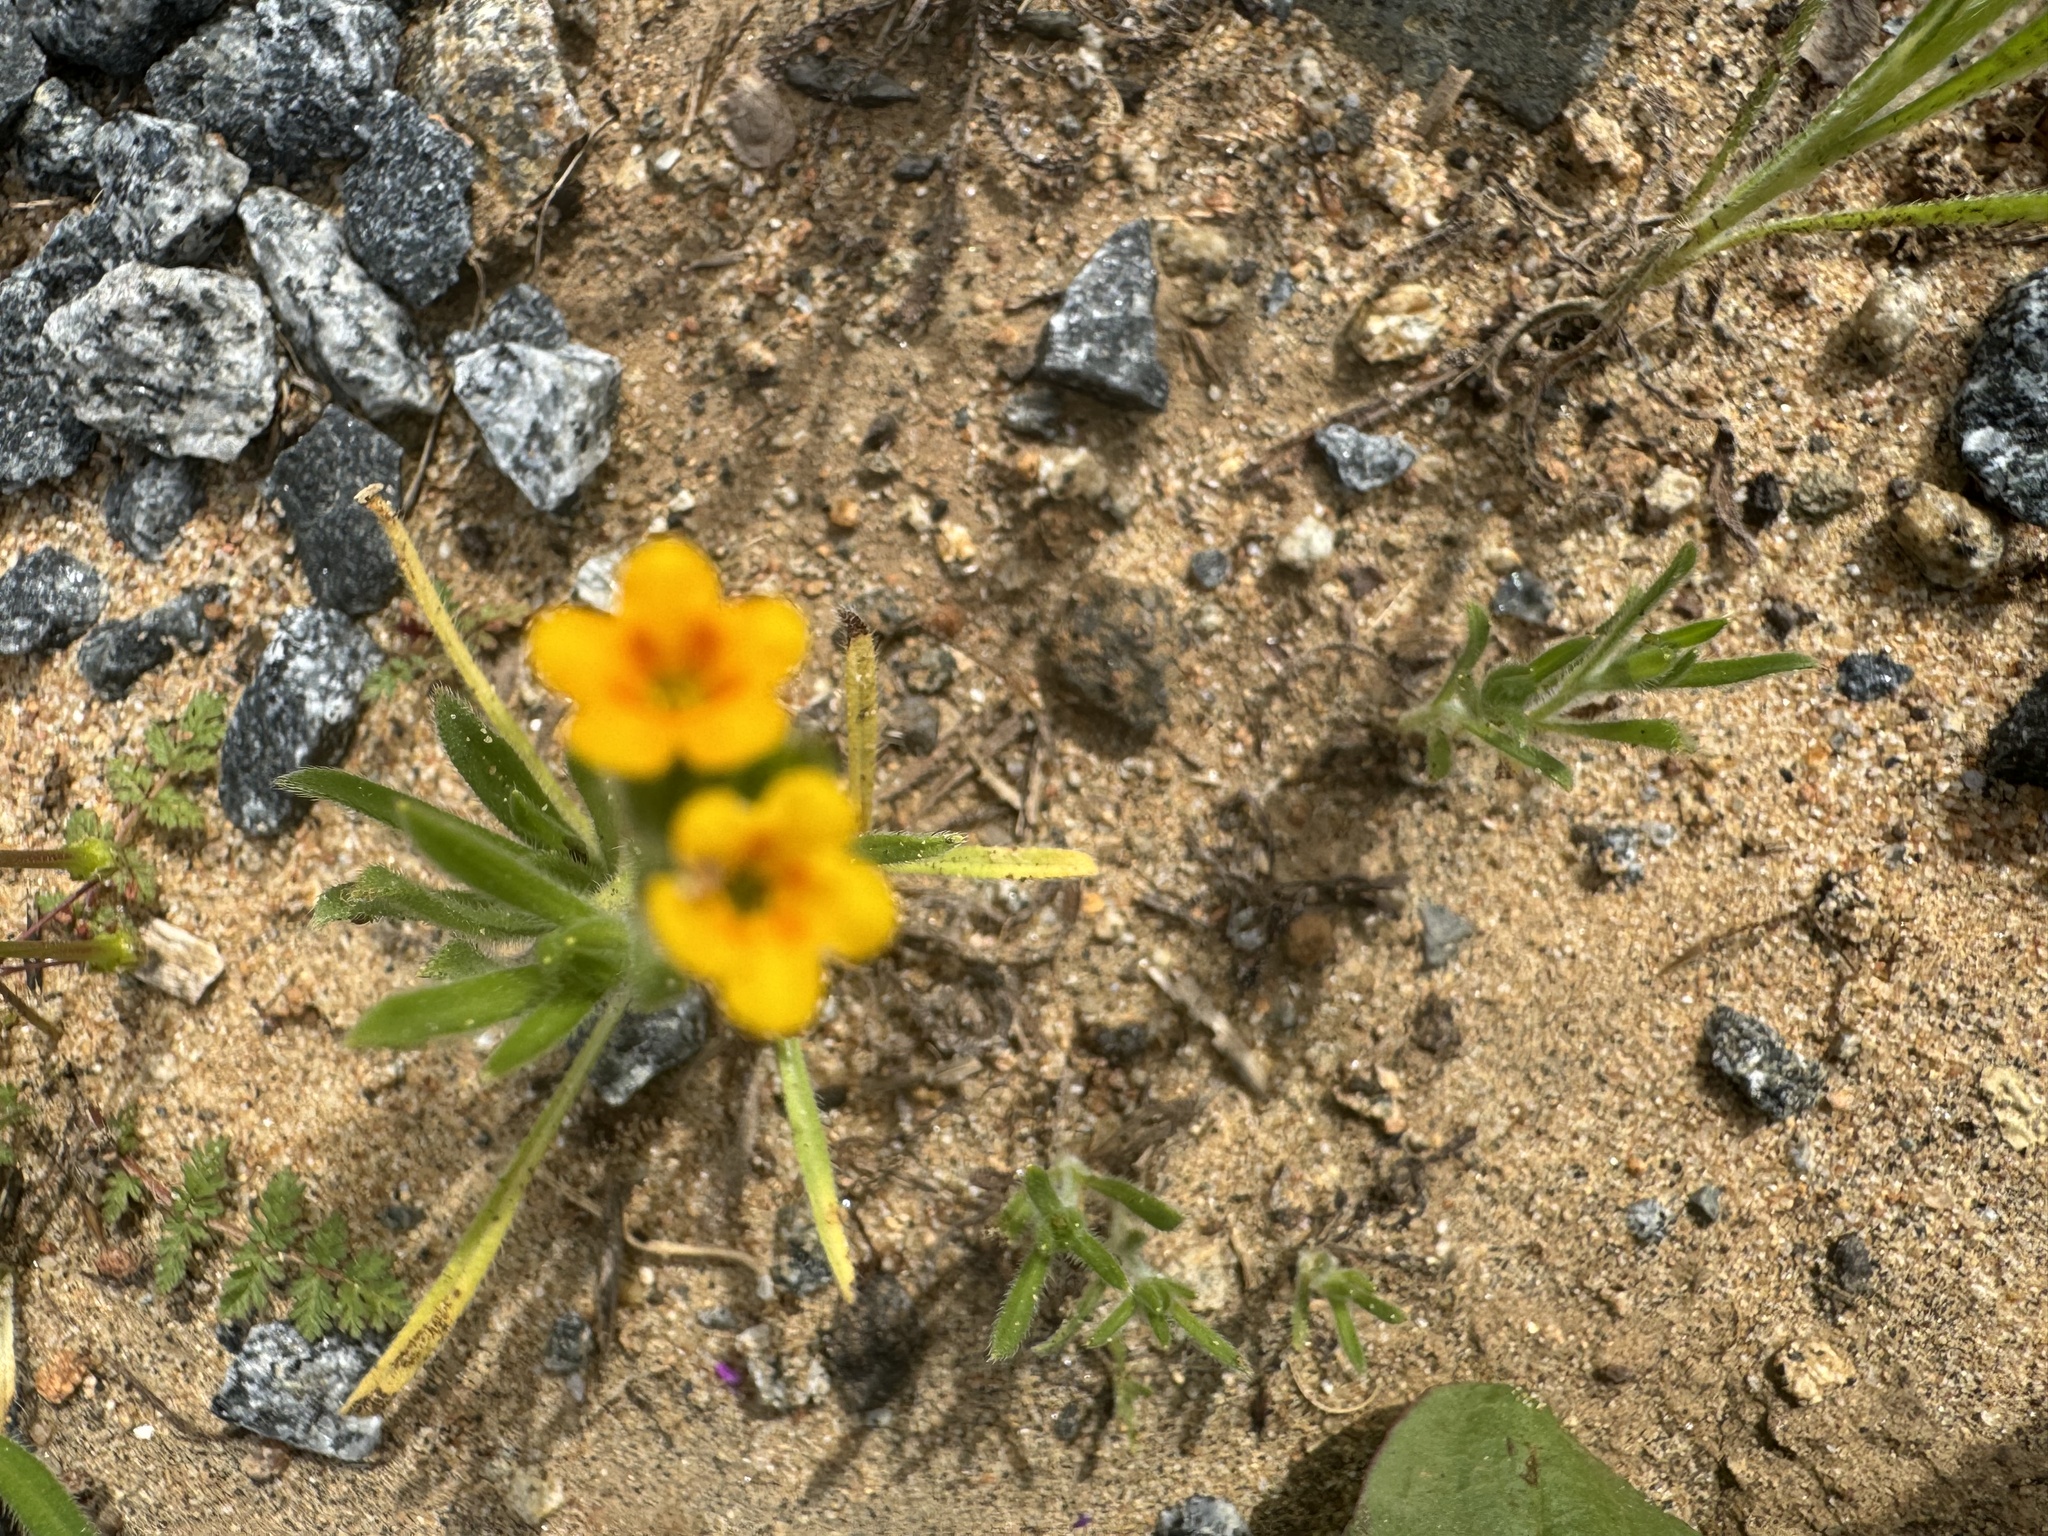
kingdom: Plantae
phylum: Tracheophyta
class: Magnoliopsida
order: Boraginales
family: Boraginaceae
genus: Amsinckia
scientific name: Amsinckia menziesii
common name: Menzies' fiddleneck
